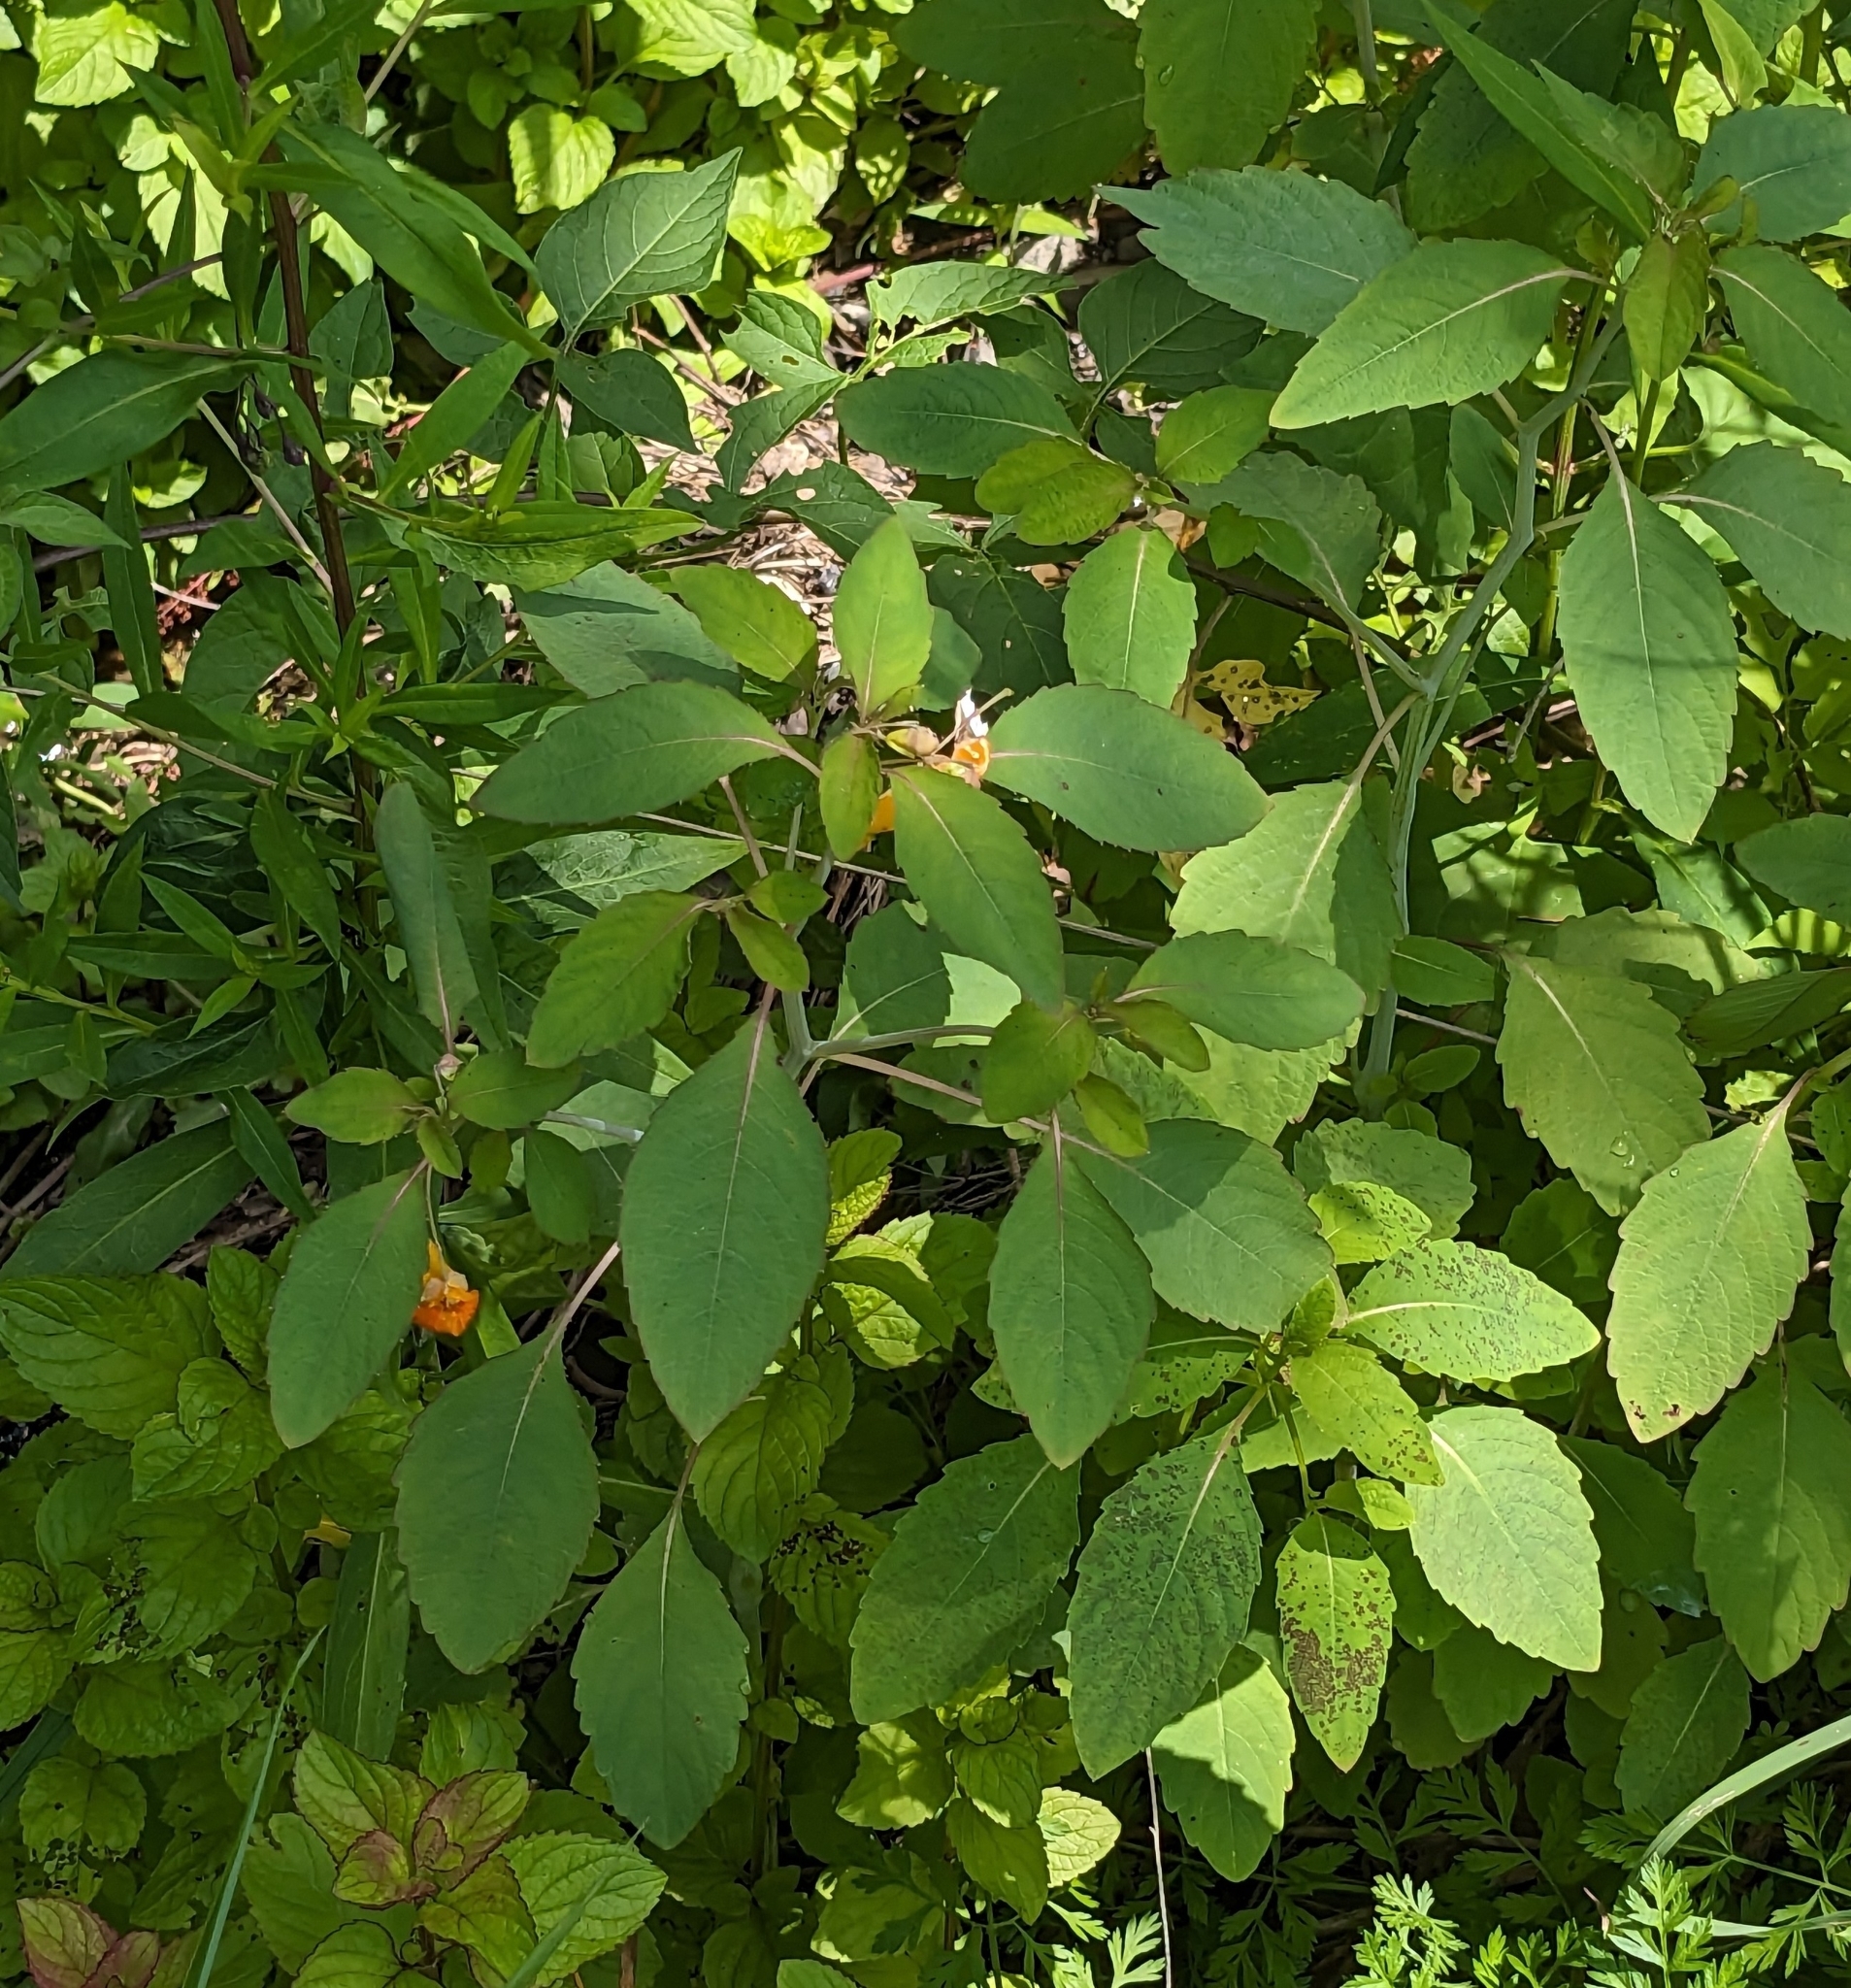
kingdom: Plantae
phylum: Tracheophyta
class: Magnoliopsida
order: Ericales
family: Balsaminaceae
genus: Impatiens
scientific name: Impatiens capensis
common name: Orange balsam
